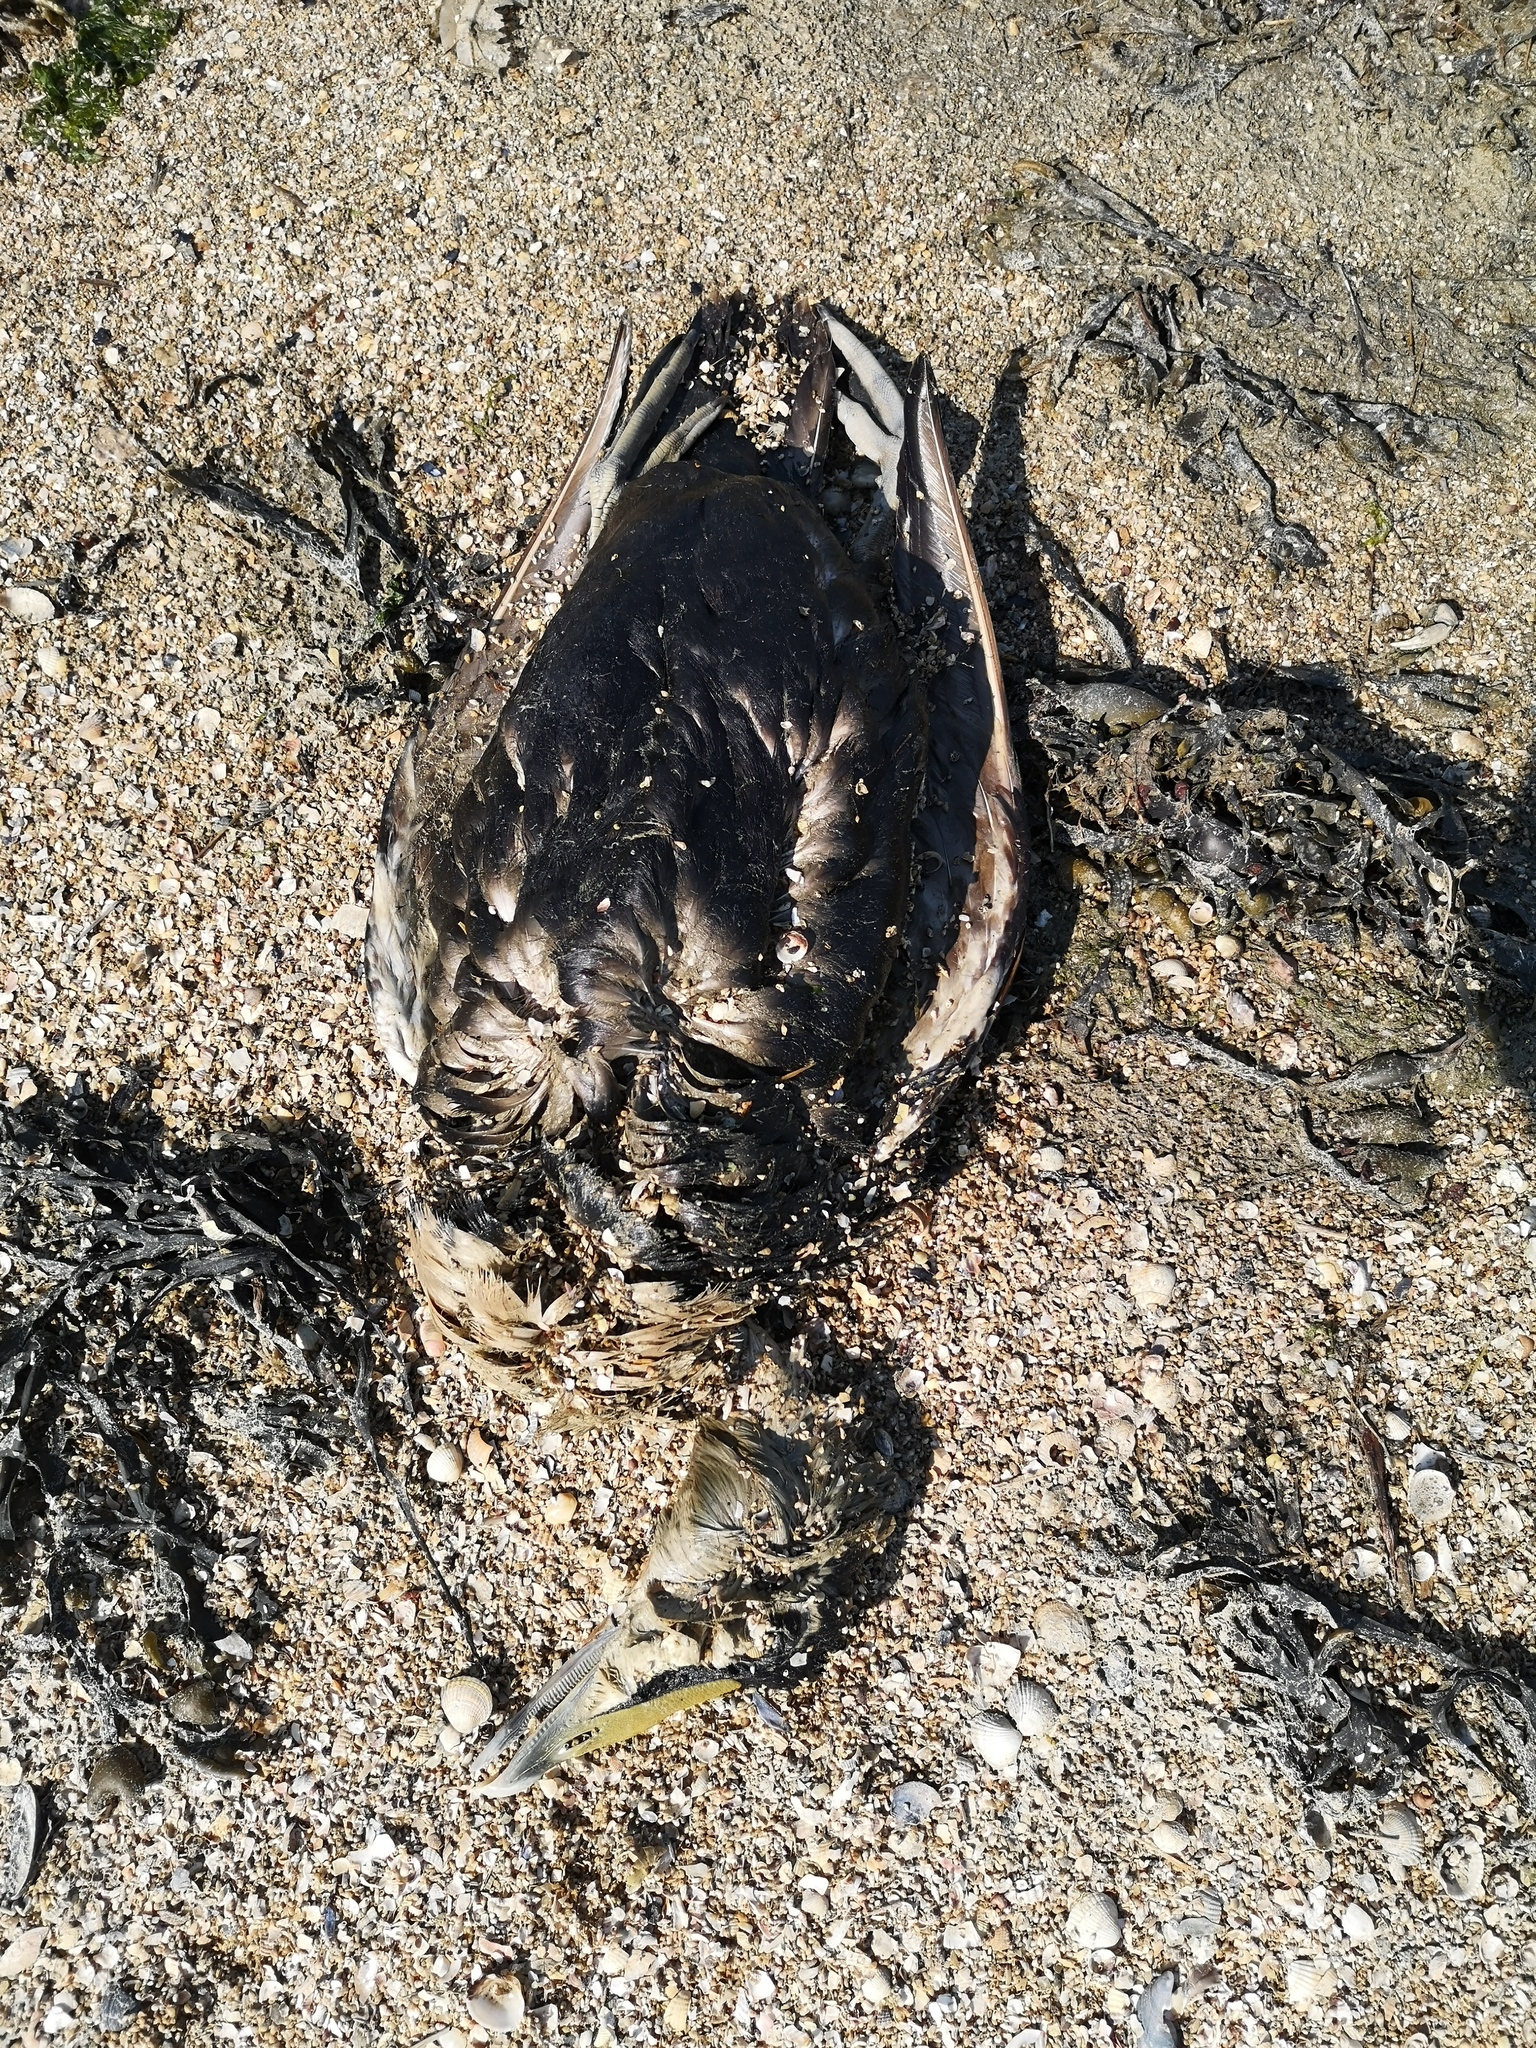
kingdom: Animalia
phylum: Chordata
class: Aves
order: Anseriformes
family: Anatidae
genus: Somateria
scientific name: Somateria mollissima
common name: Common eider
